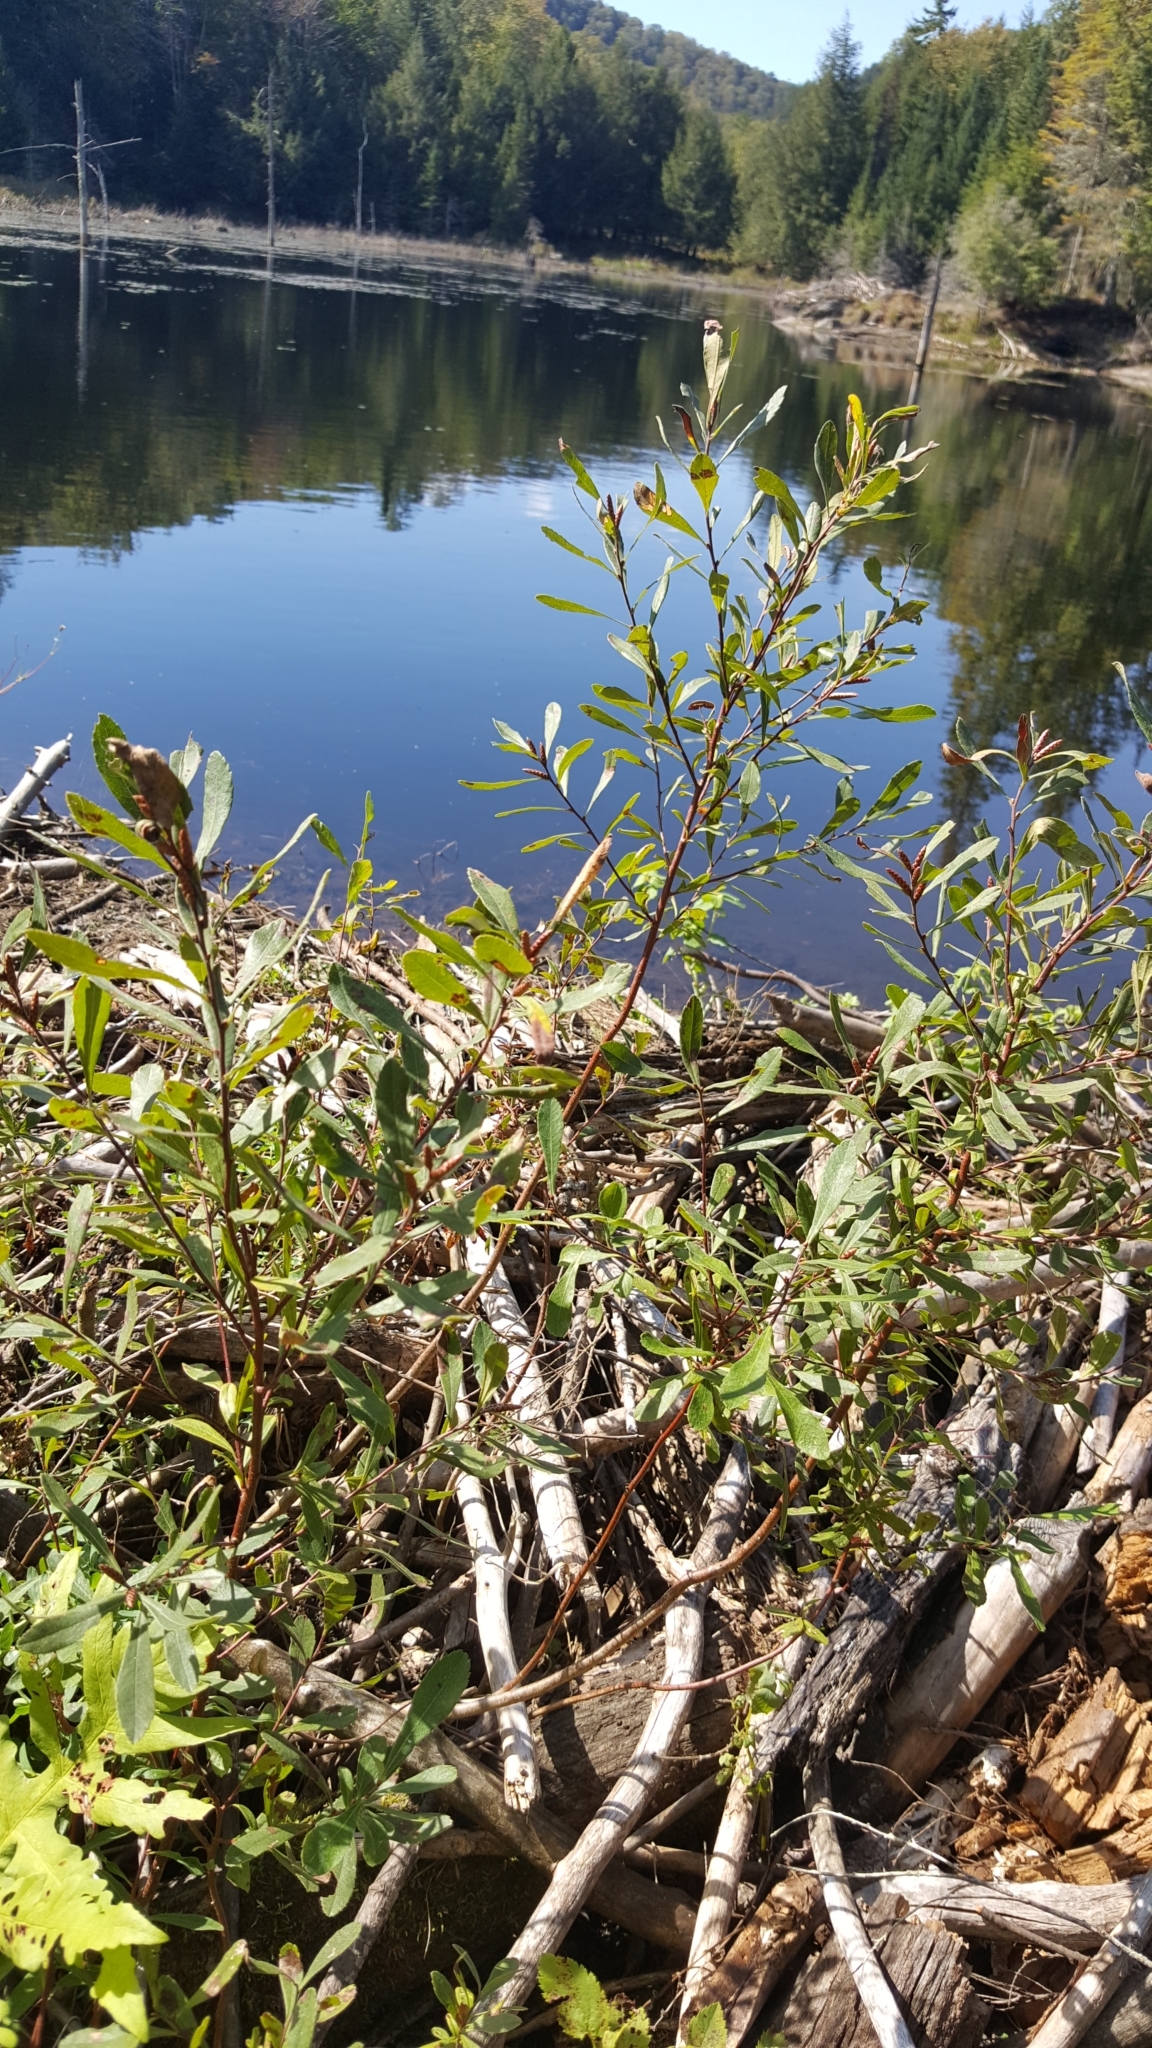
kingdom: Plantae
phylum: Tracheophyta
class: Magnoliopsida
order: Fagales
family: Myricaceae
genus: Myrica
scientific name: Myrica gale
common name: Sweet gale
